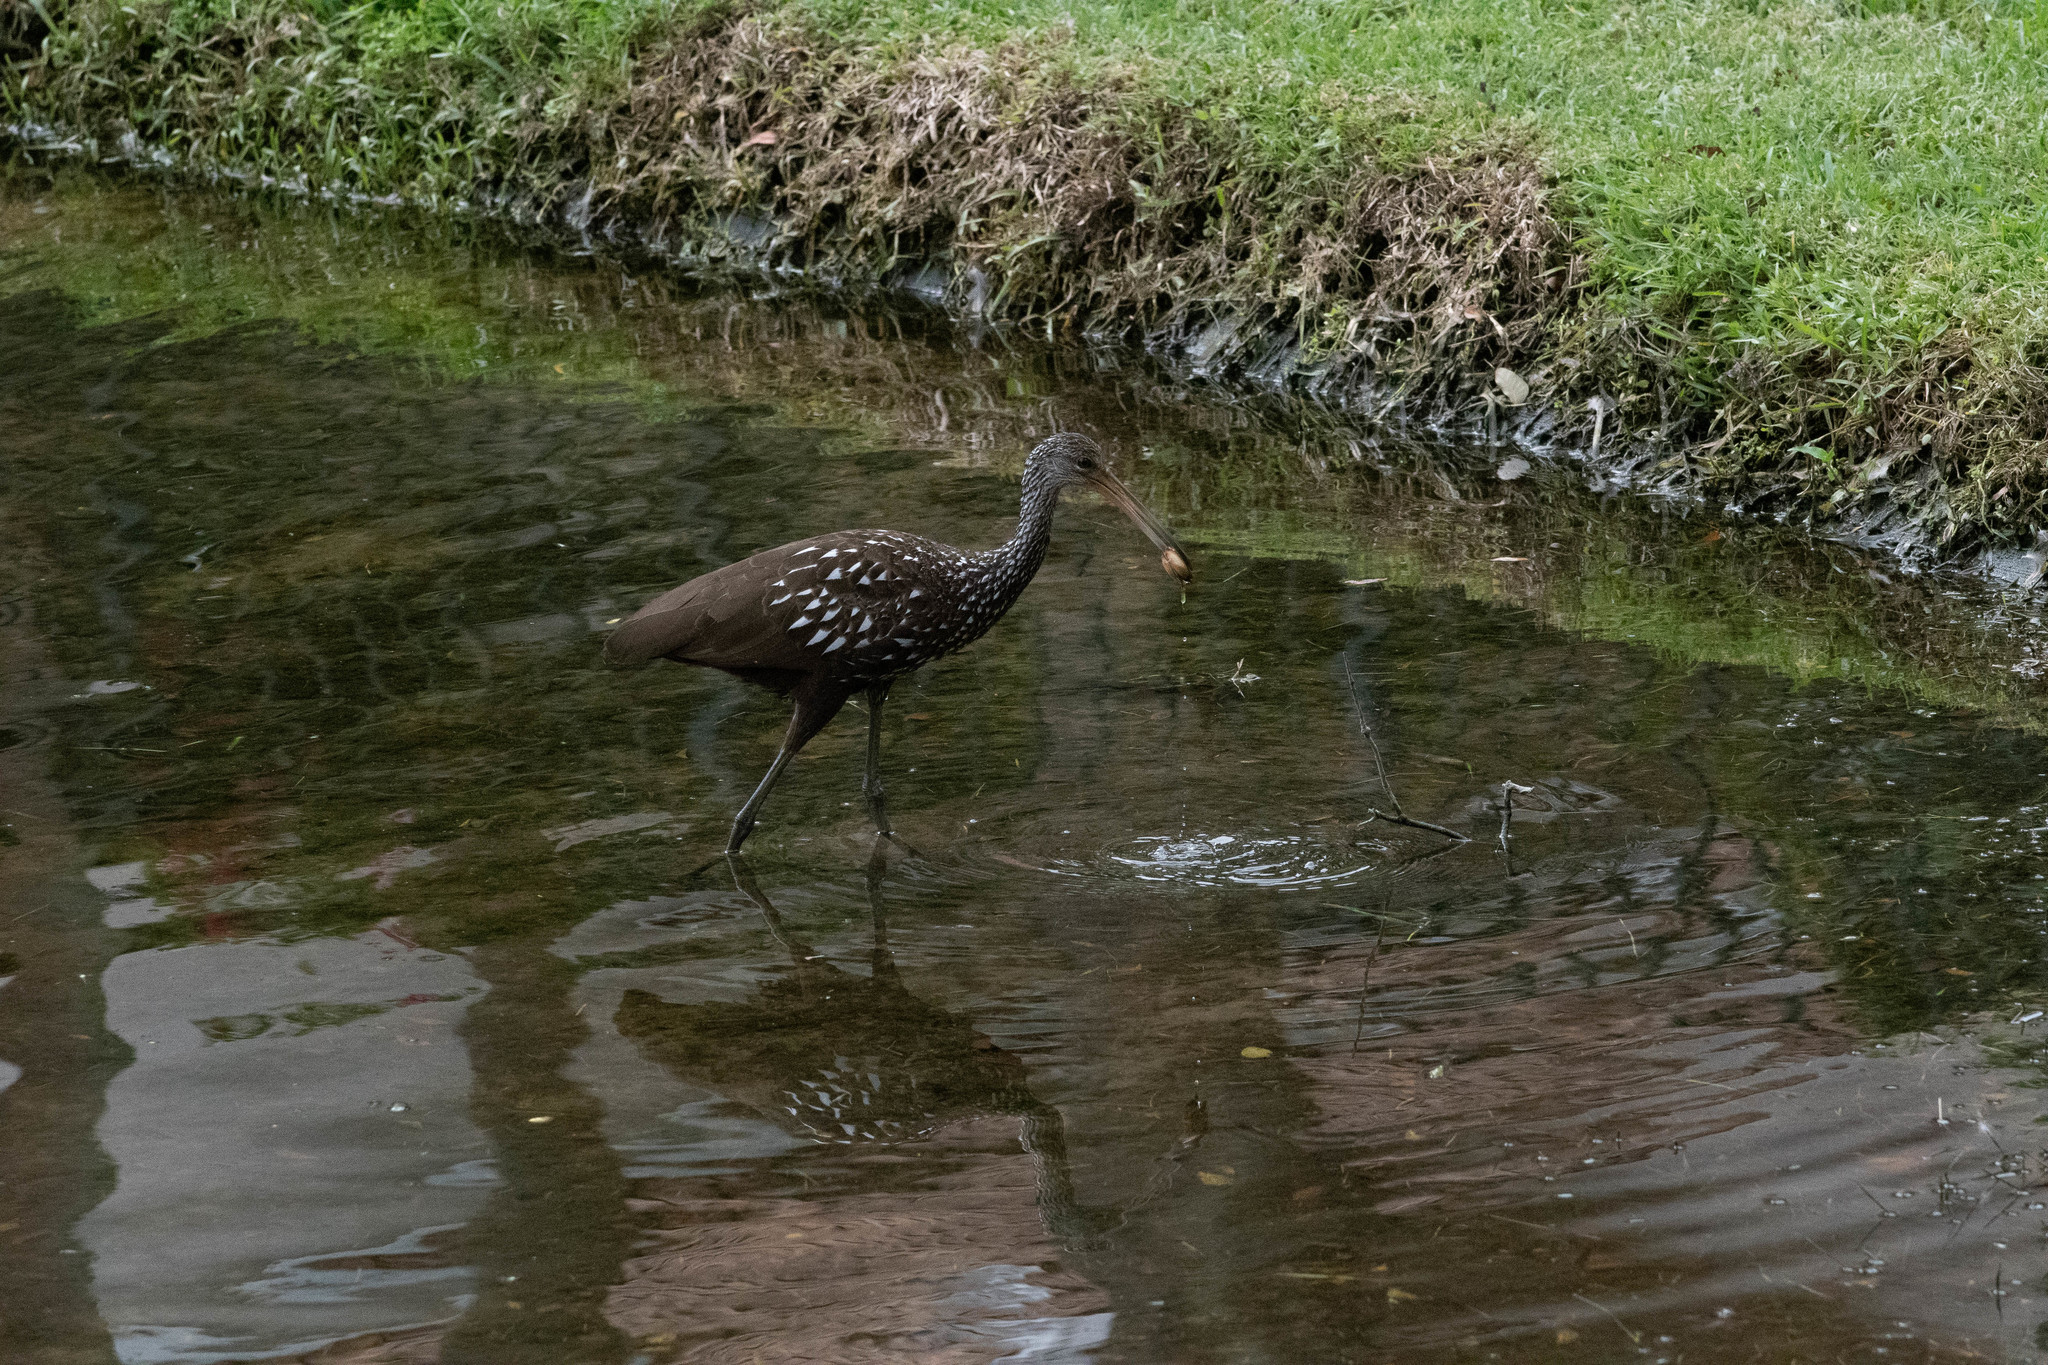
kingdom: Animalia
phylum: Chordata
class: Aves
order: Gruiformes
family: Aramidae
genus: Aramus
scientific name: Aramus guarauna
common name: Limpkin
